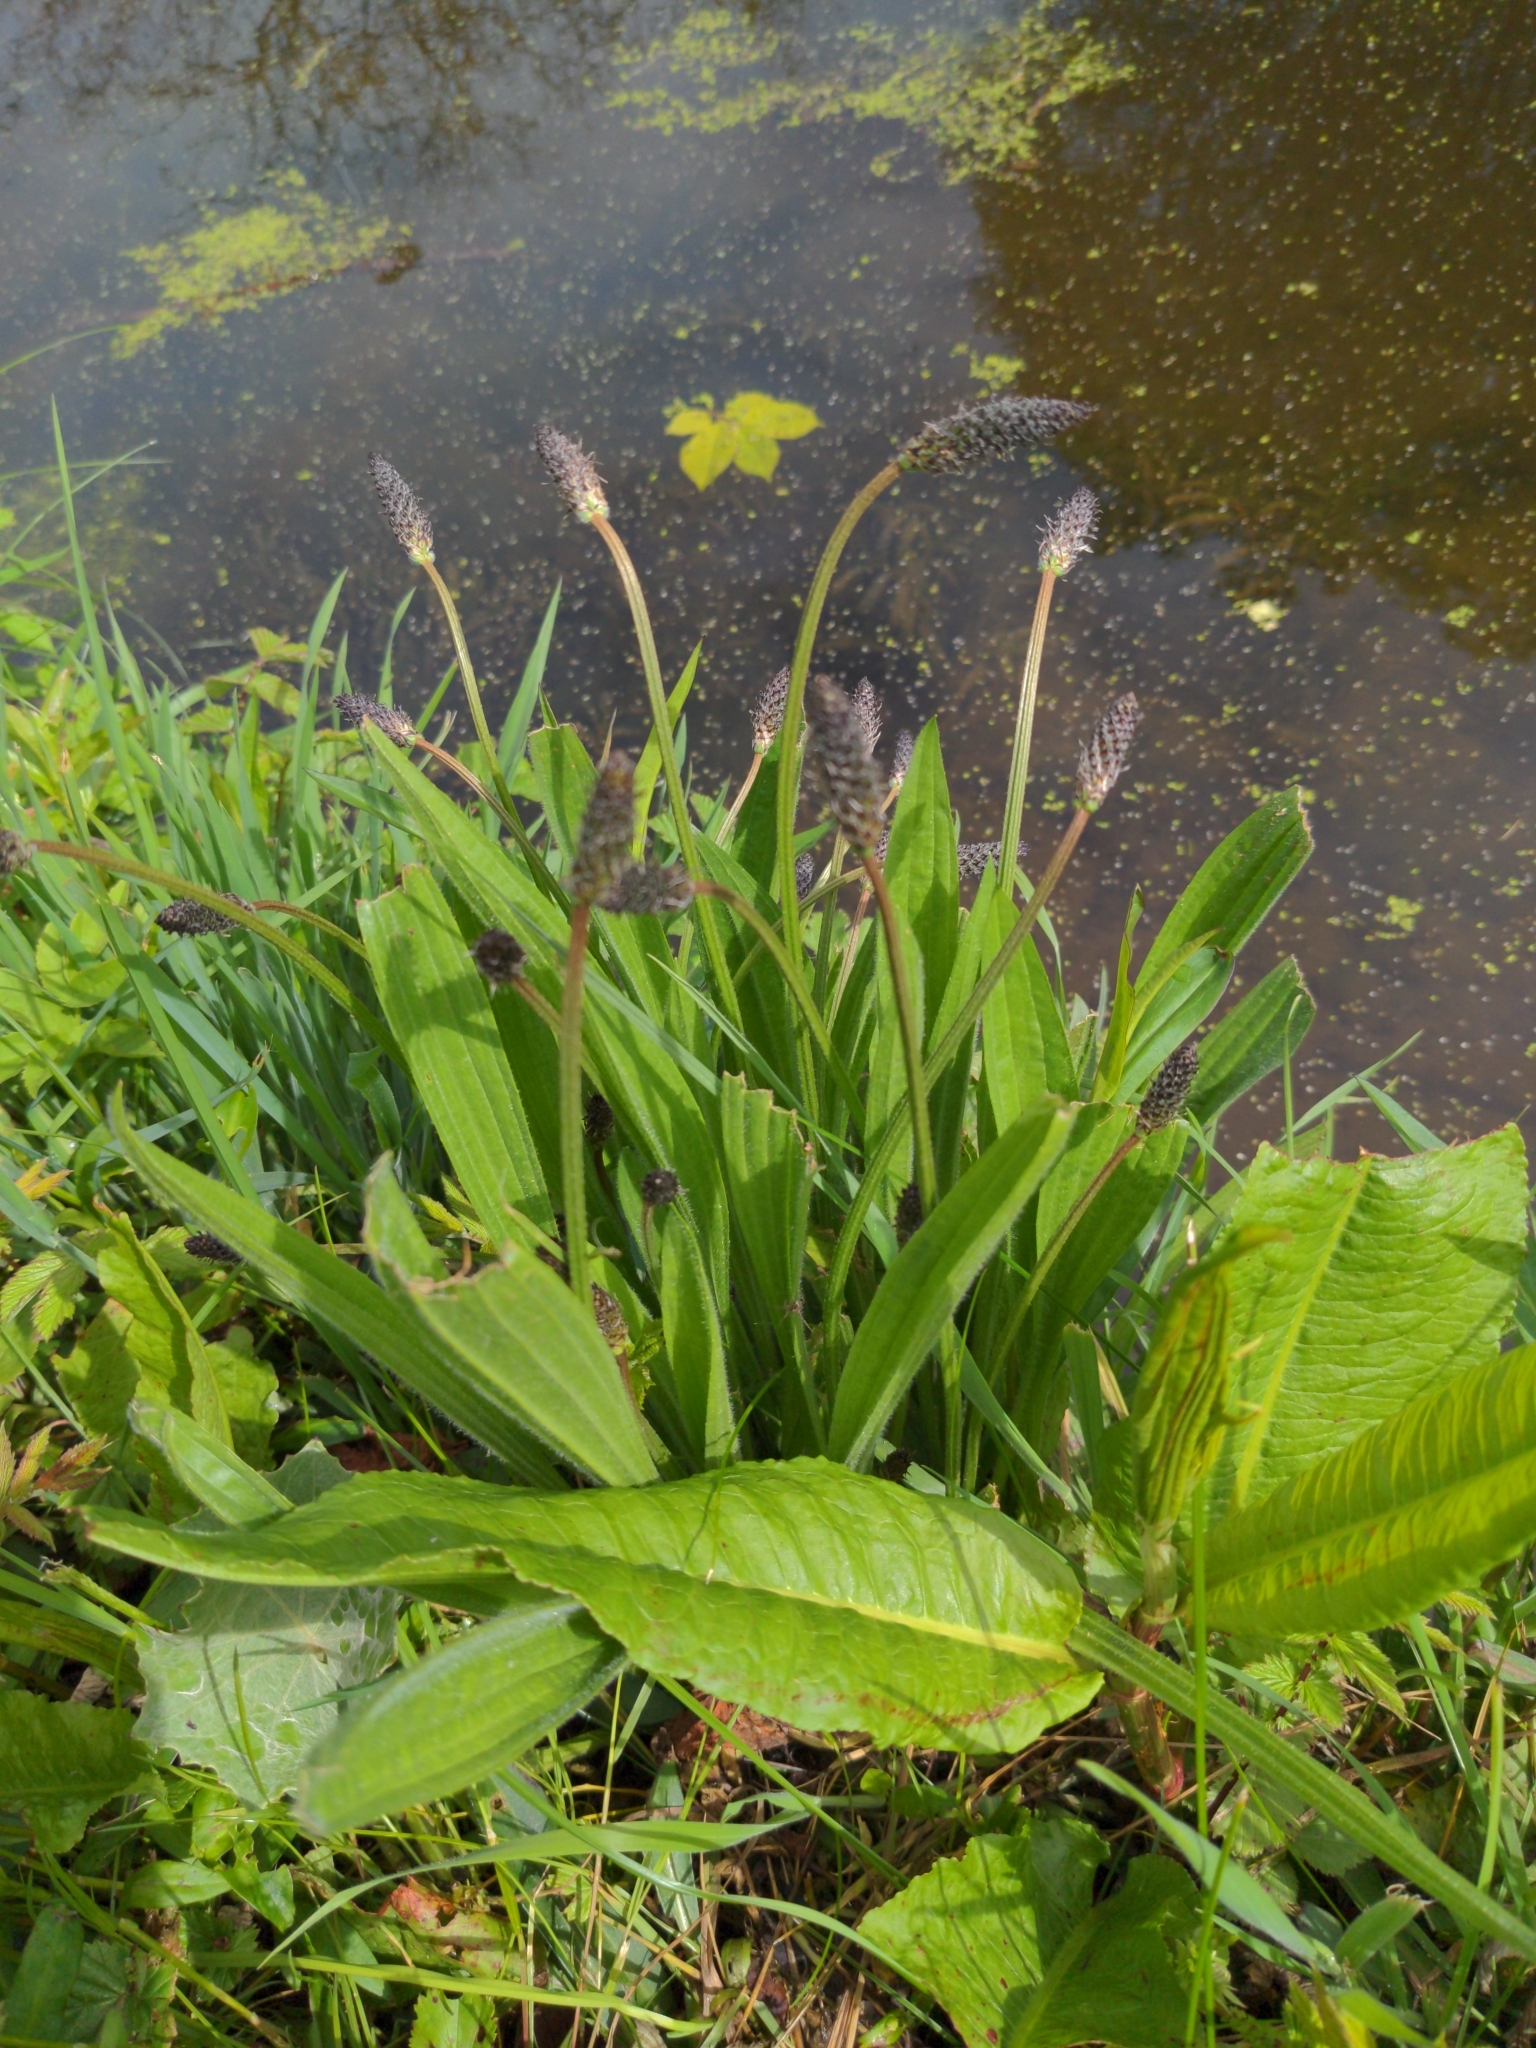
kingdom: Plantae
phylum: Tracheophyta
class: Magnoliopsida
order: Lamiales
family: Plantaginaceae
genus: Plantago
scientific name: Plantago lanceolata
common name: Ribwort plantain
